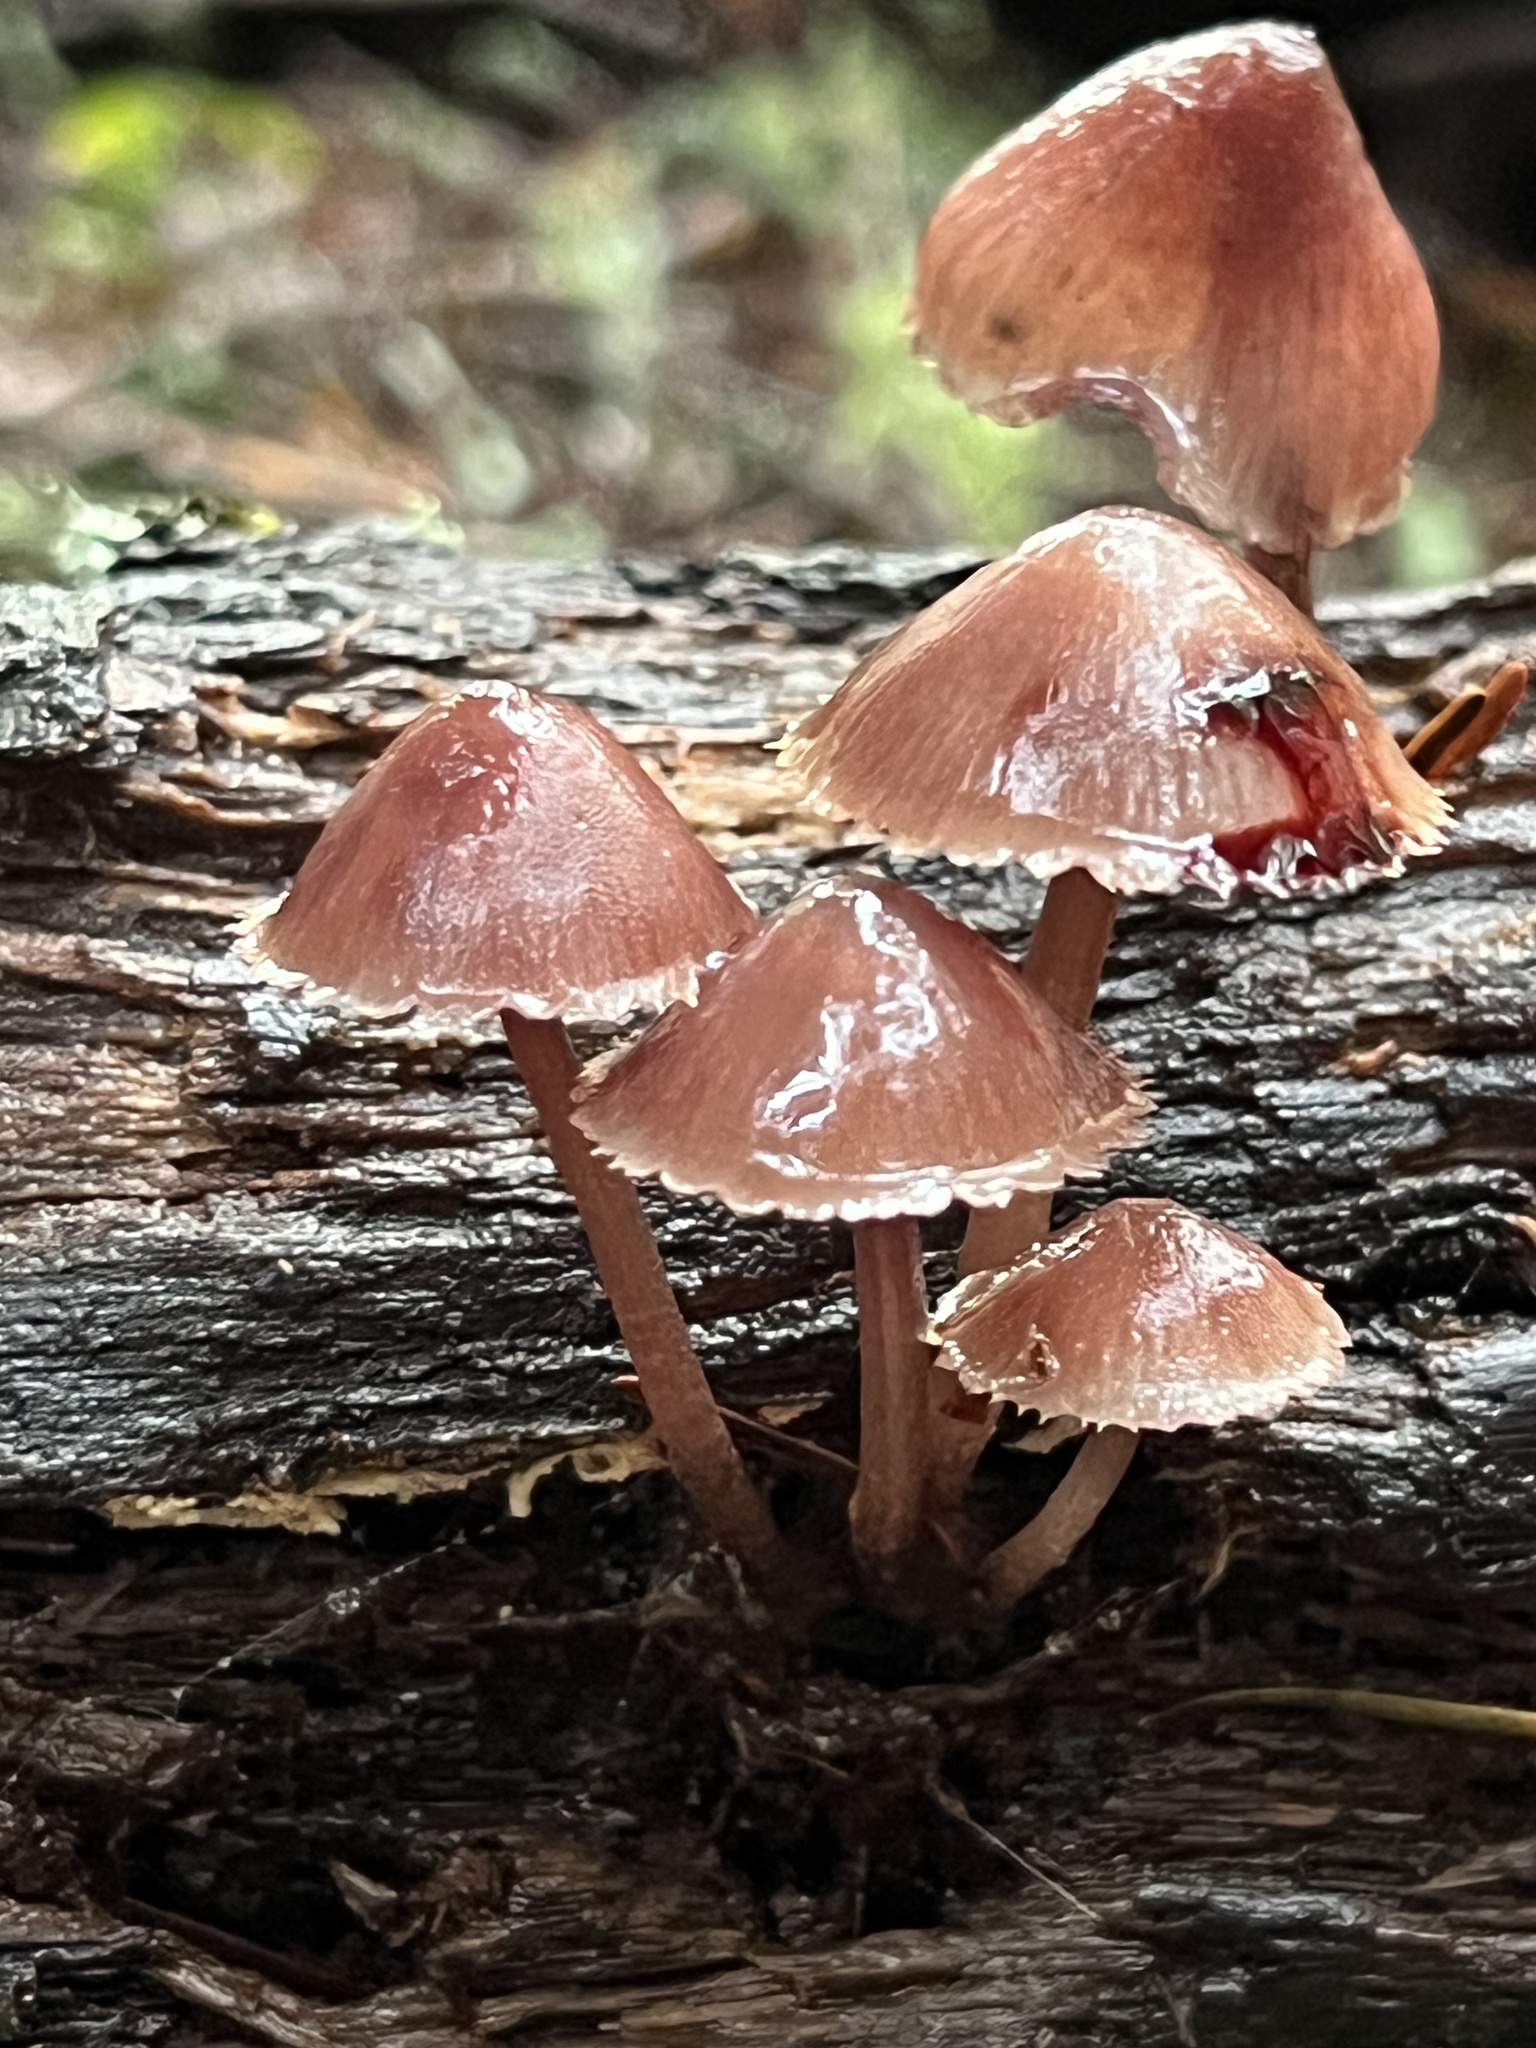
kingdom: Fungi
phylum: Basidiomycota
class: Agaricomycetes
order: Agaricales
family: Mycenaceae
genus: Mycena
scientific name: Mycena haematopus
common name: Burgundydrop bonnet
